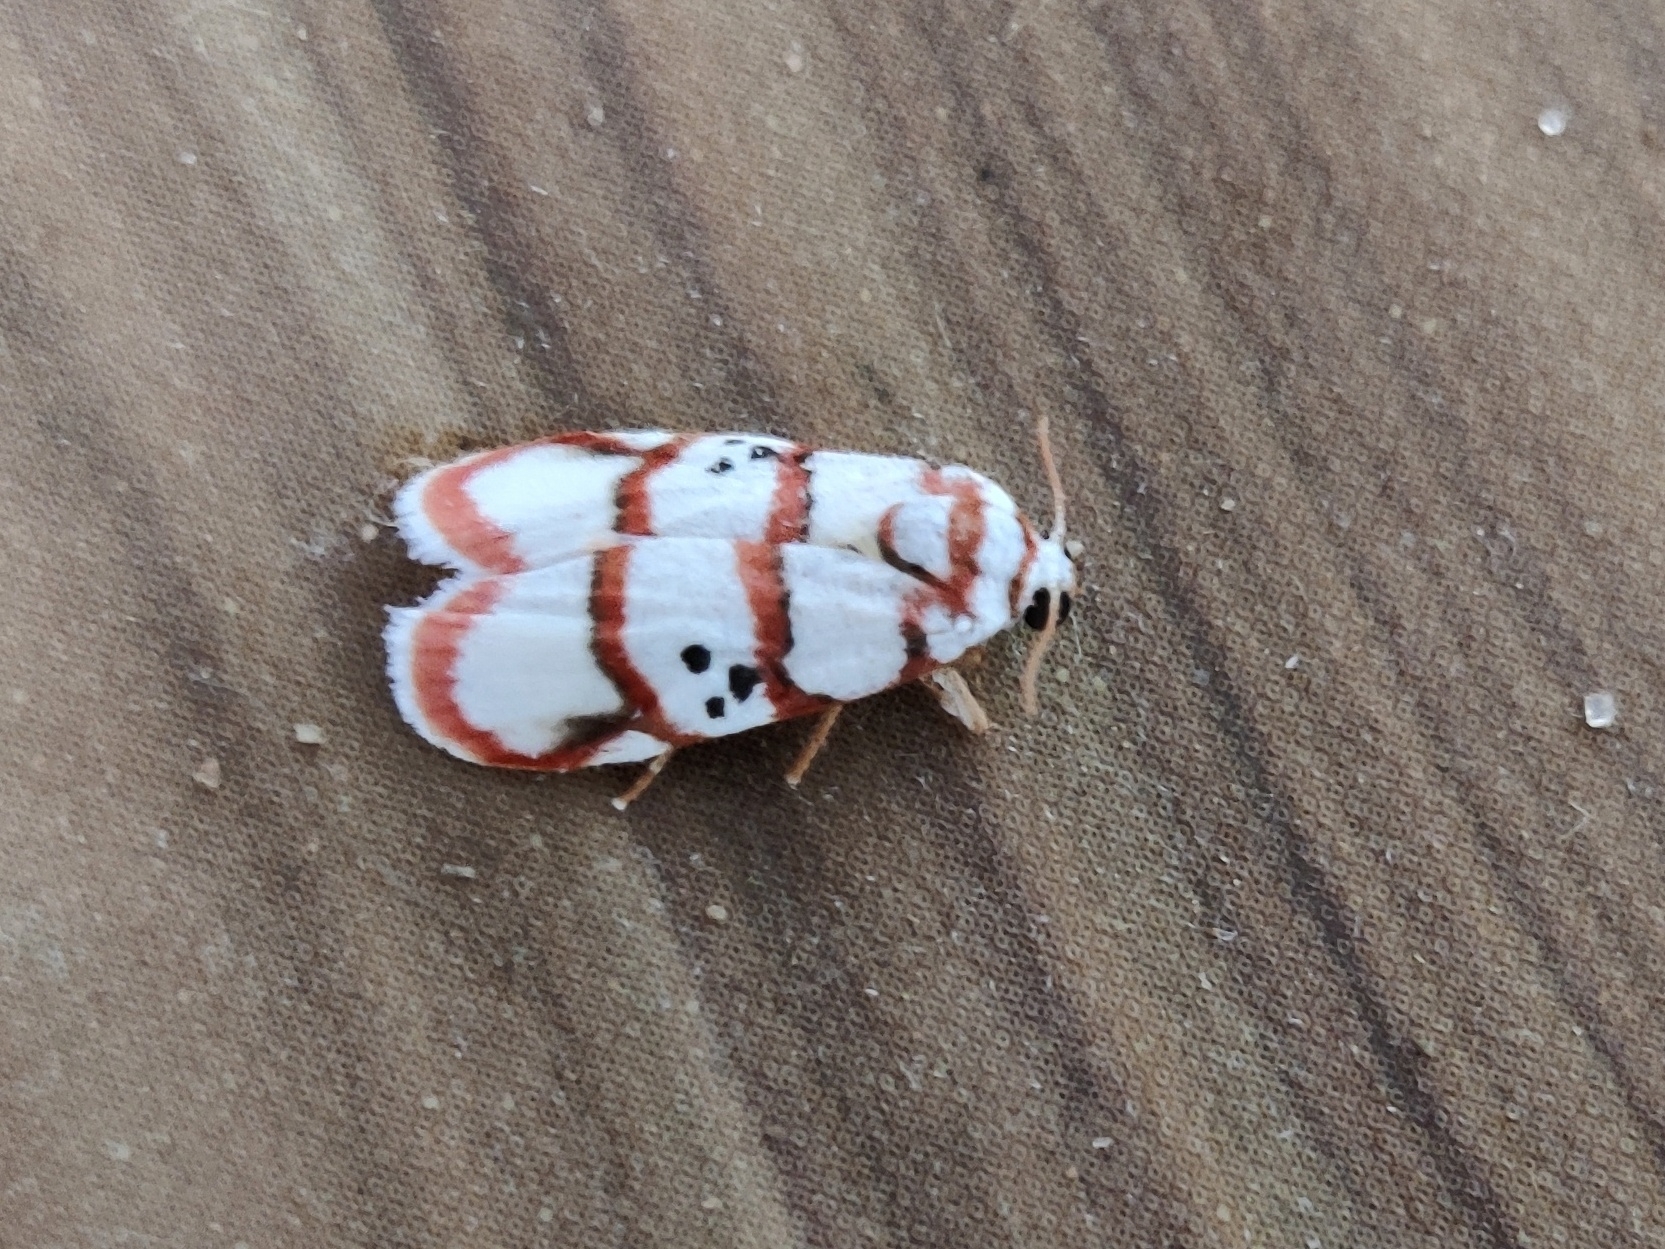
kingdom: Animalia
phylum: Arthropoda
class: Insecta
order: Lepidoptera
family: Erebidae
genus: Cyana
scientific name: Cyana peregrina
